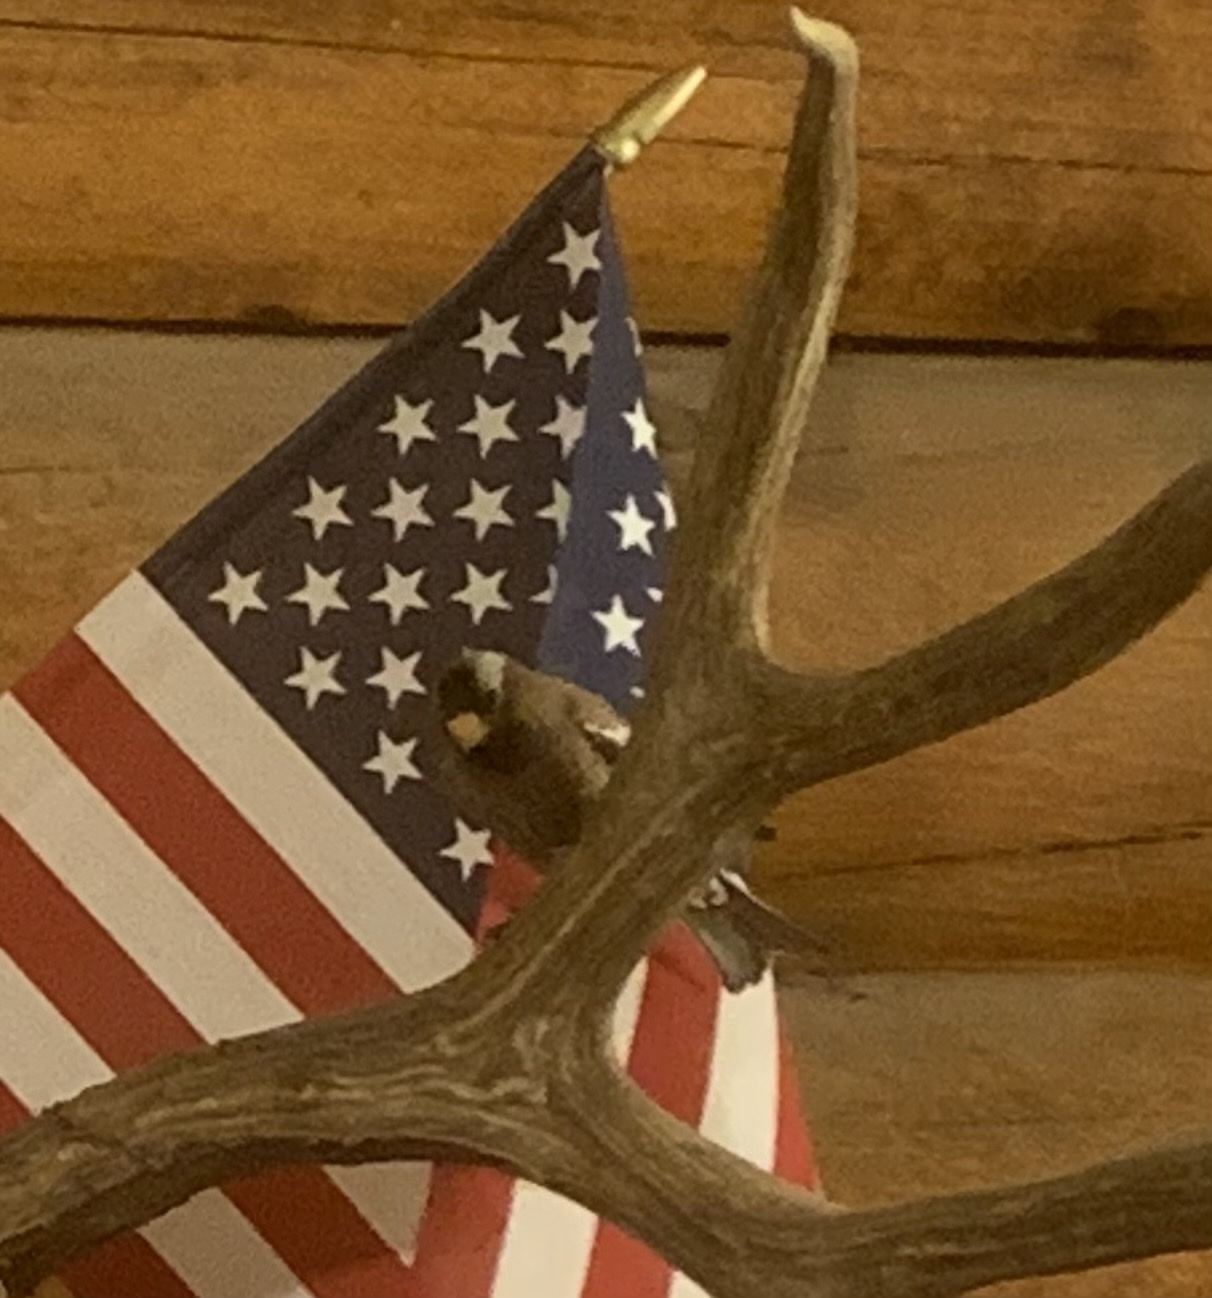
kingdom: Animalia
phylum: Chordata
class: Aves
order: Passeriformes
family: Fringillidae
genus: Leucosticte
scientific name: Leucosticte tephrocotis
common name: Gray-crowned rosy-finch
